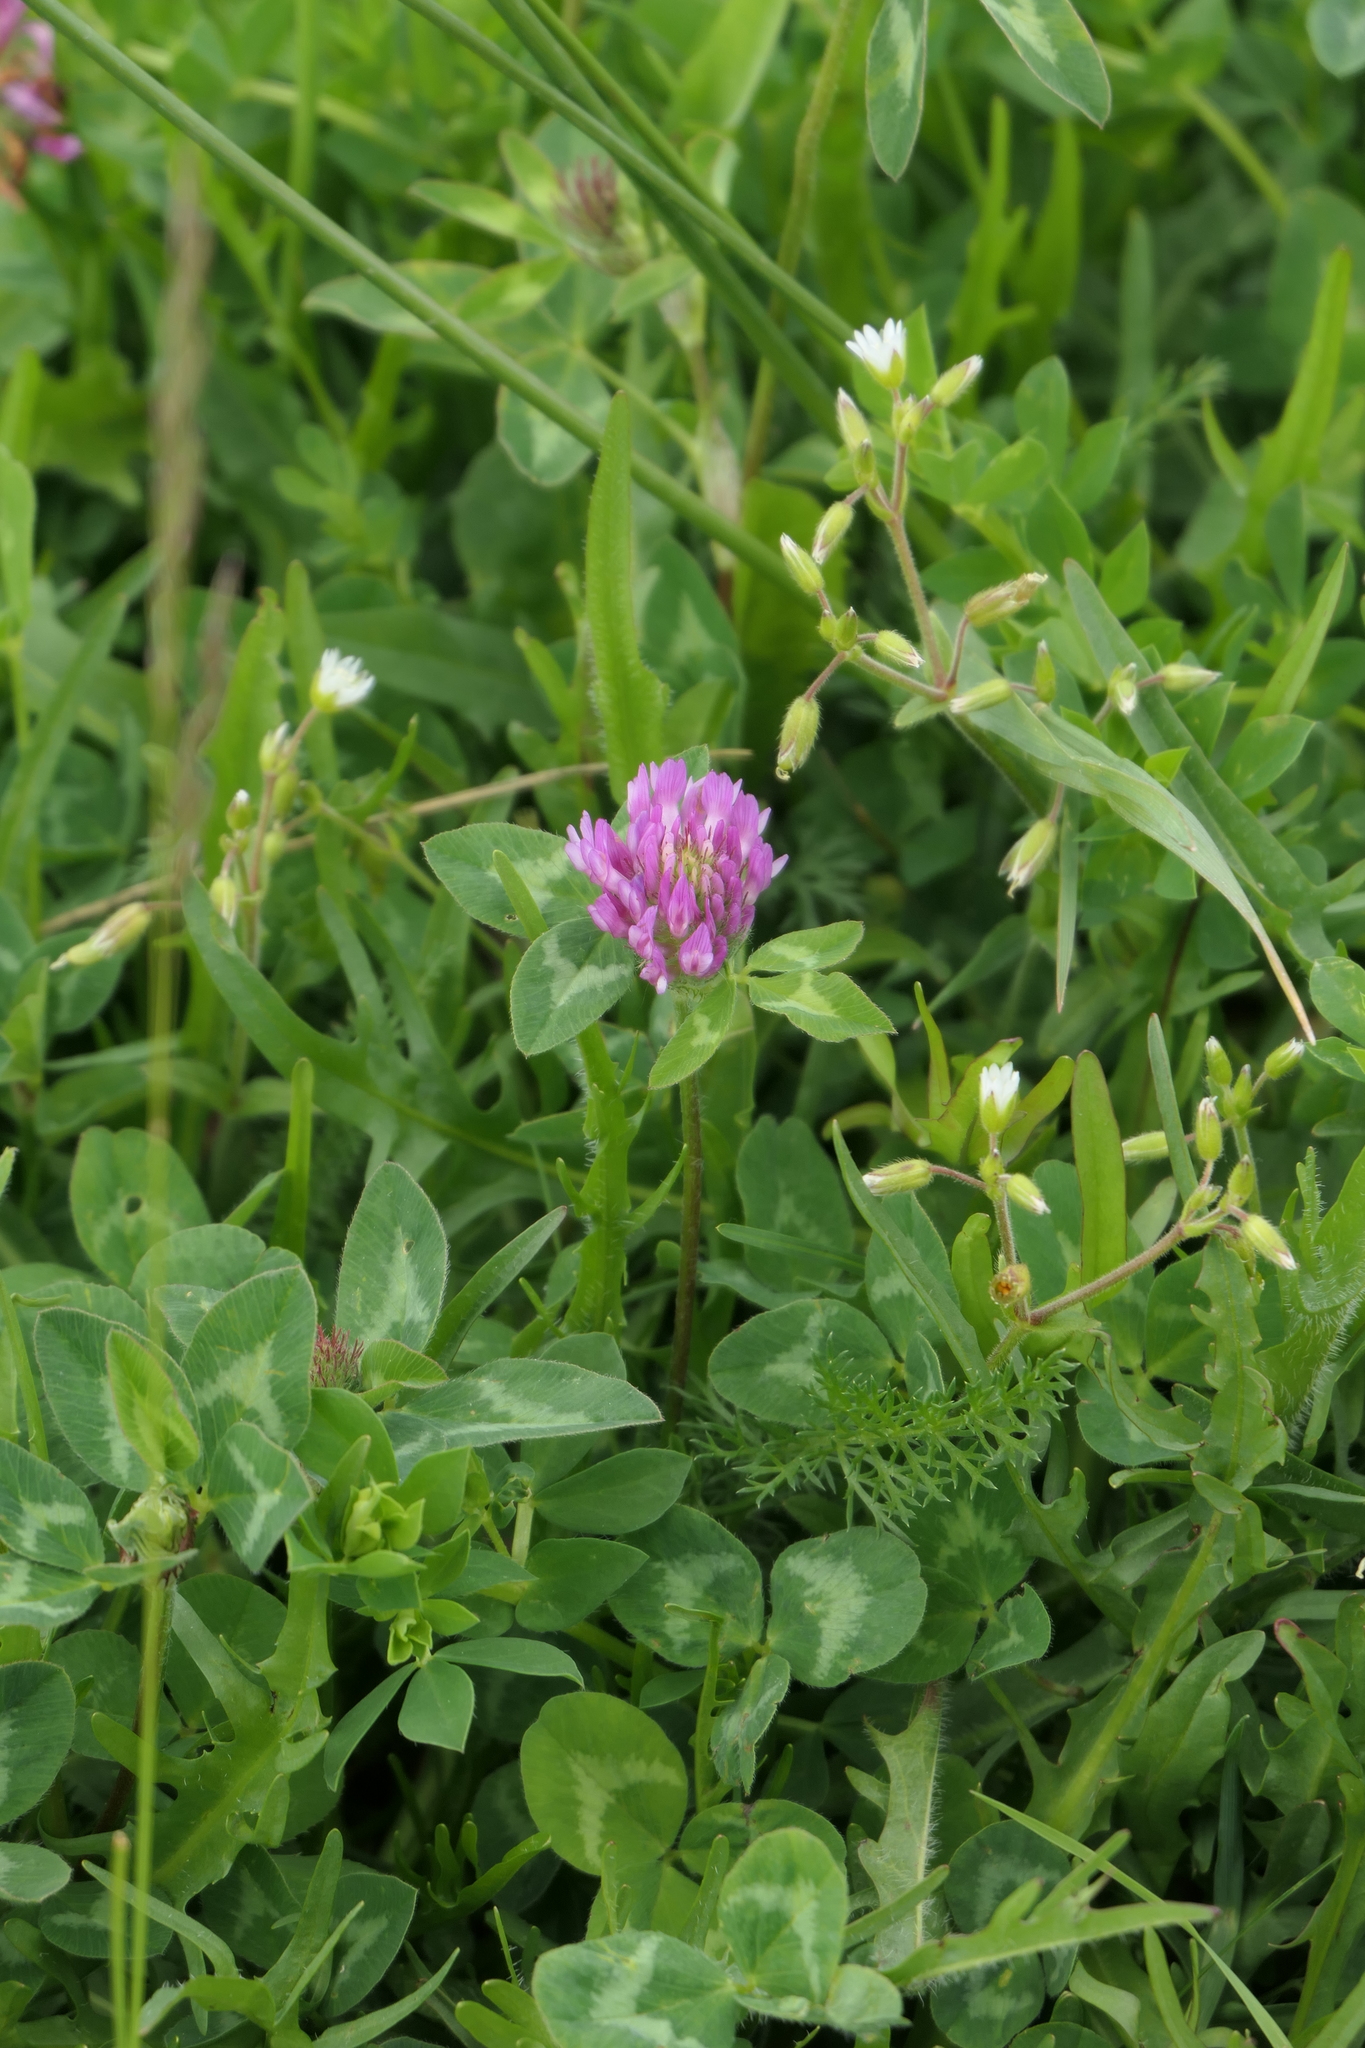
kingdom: Plantae
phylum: Tracheophyta
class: Magnoliopsida
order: Fabales
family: Fabaceae
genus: Trifolium
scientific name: Trifolium pratense
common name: Red clover
